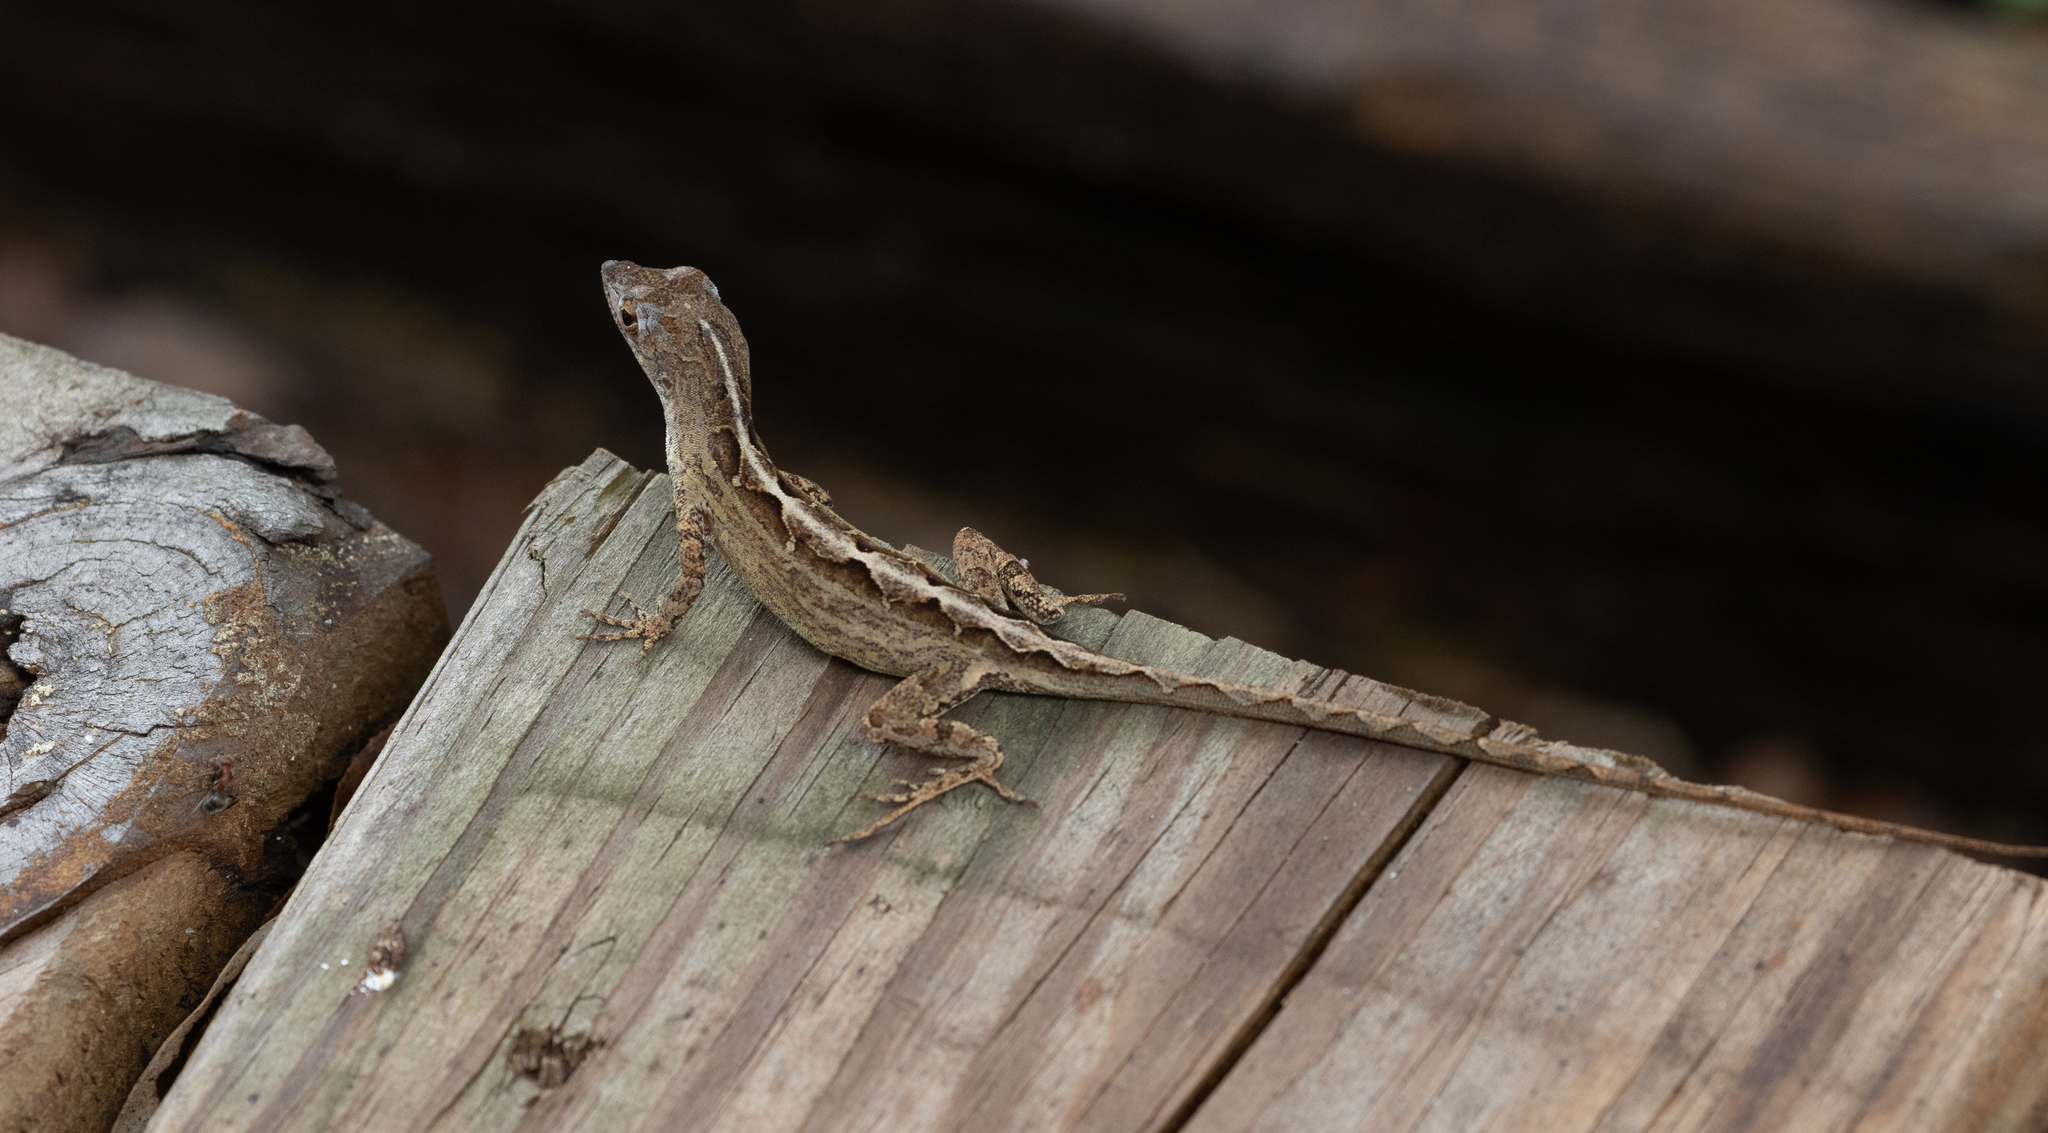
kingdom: Animalia
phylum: Chordata
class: Squamata
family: Dactyloidae
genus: Anolis
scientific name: Anolis sagrei
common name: Brown anole
